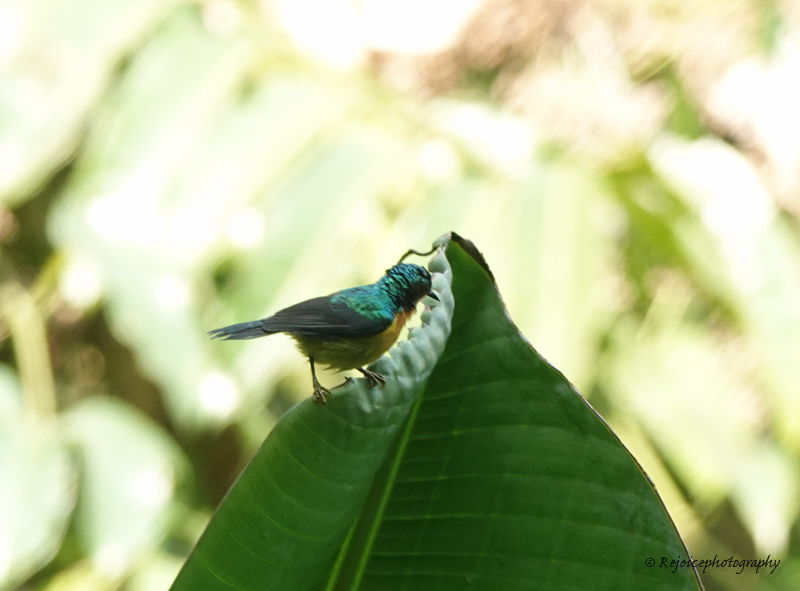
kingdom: Animalia
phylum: Chordata
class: Aves
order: Passeriformes
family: Nectariniidae
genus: Chalcoparia
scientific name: Chalcoparia singalensis
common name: Ruby-cheeked sunbird
